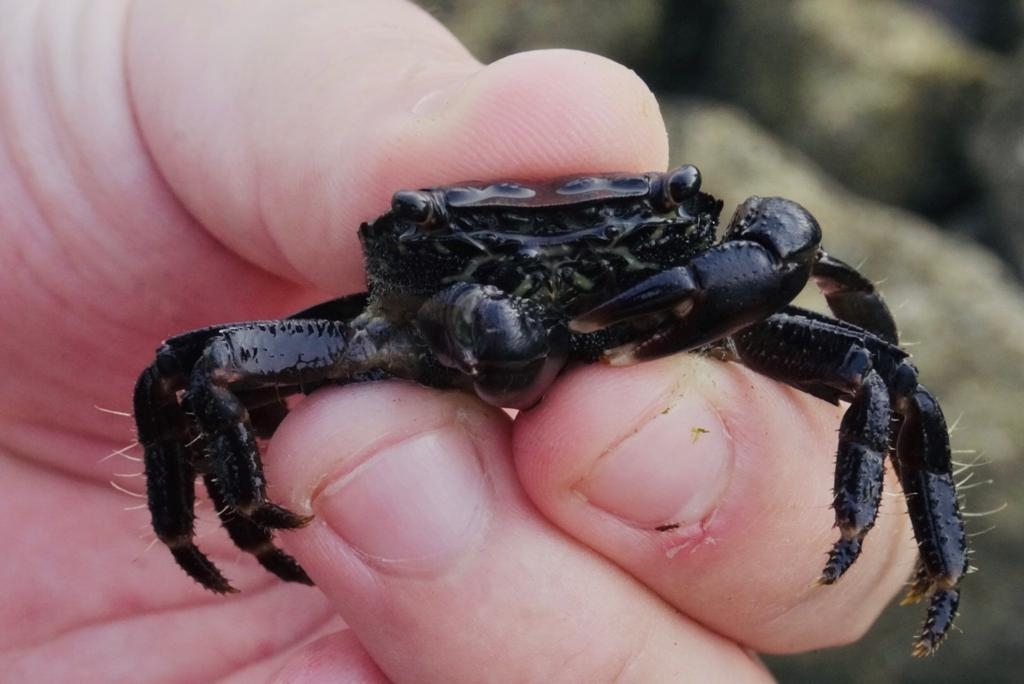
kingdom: Animalia
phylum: Arthropoda
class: Malacostraca
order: Decapoda
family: Grapsidae
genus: Pachygrapsus
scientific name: Pachygrapsus marmoratus
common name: Marbled rock crab
